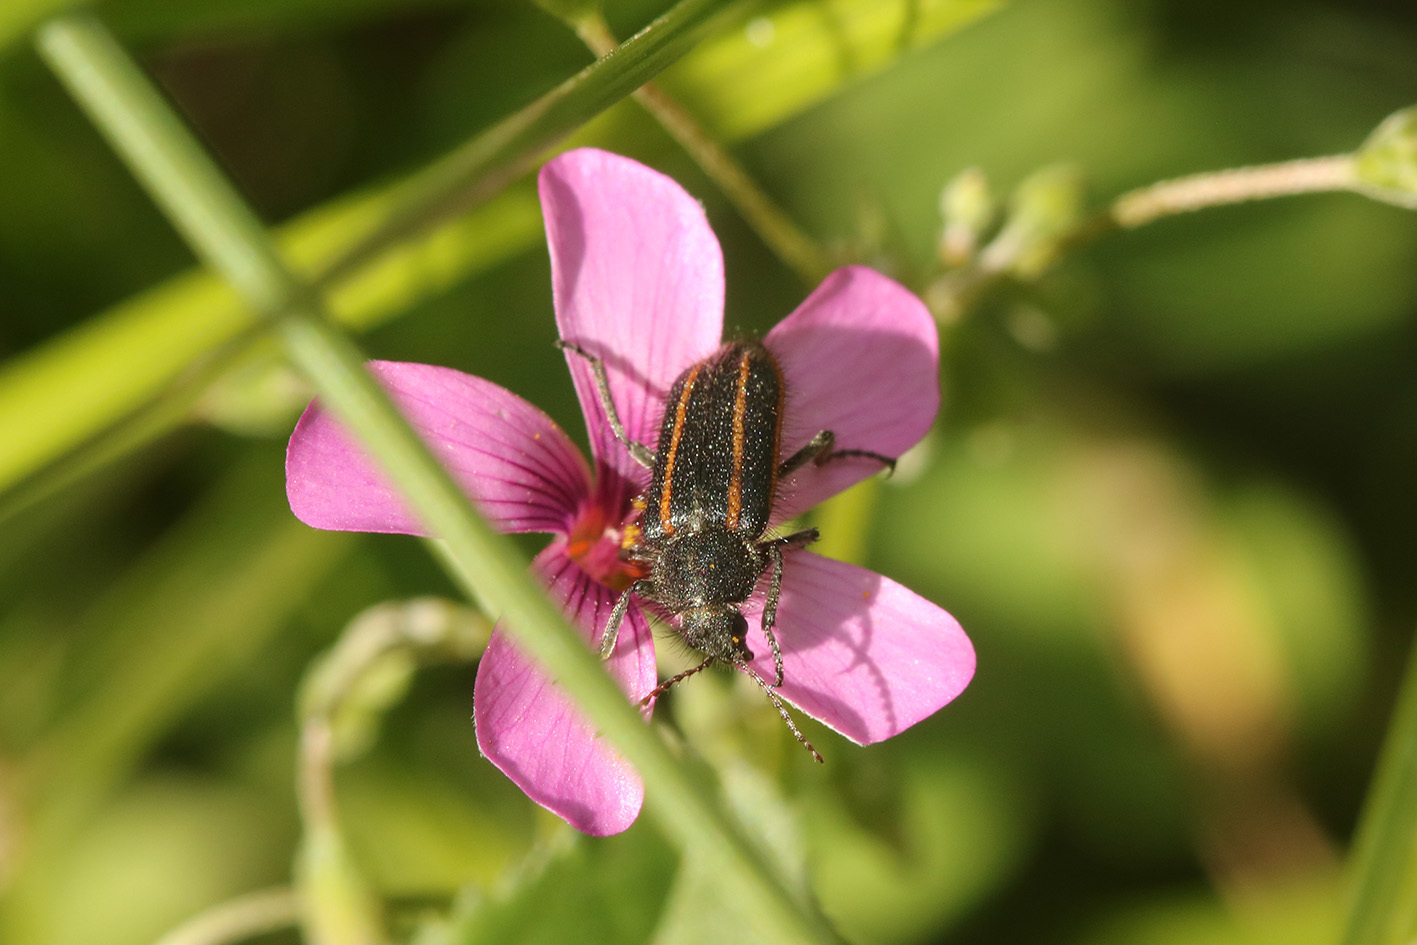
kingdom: Animalia
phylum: Arthropoda
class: Insecta
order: Coleoptera
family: Melyridae
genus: Astylus
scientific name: Astylus
